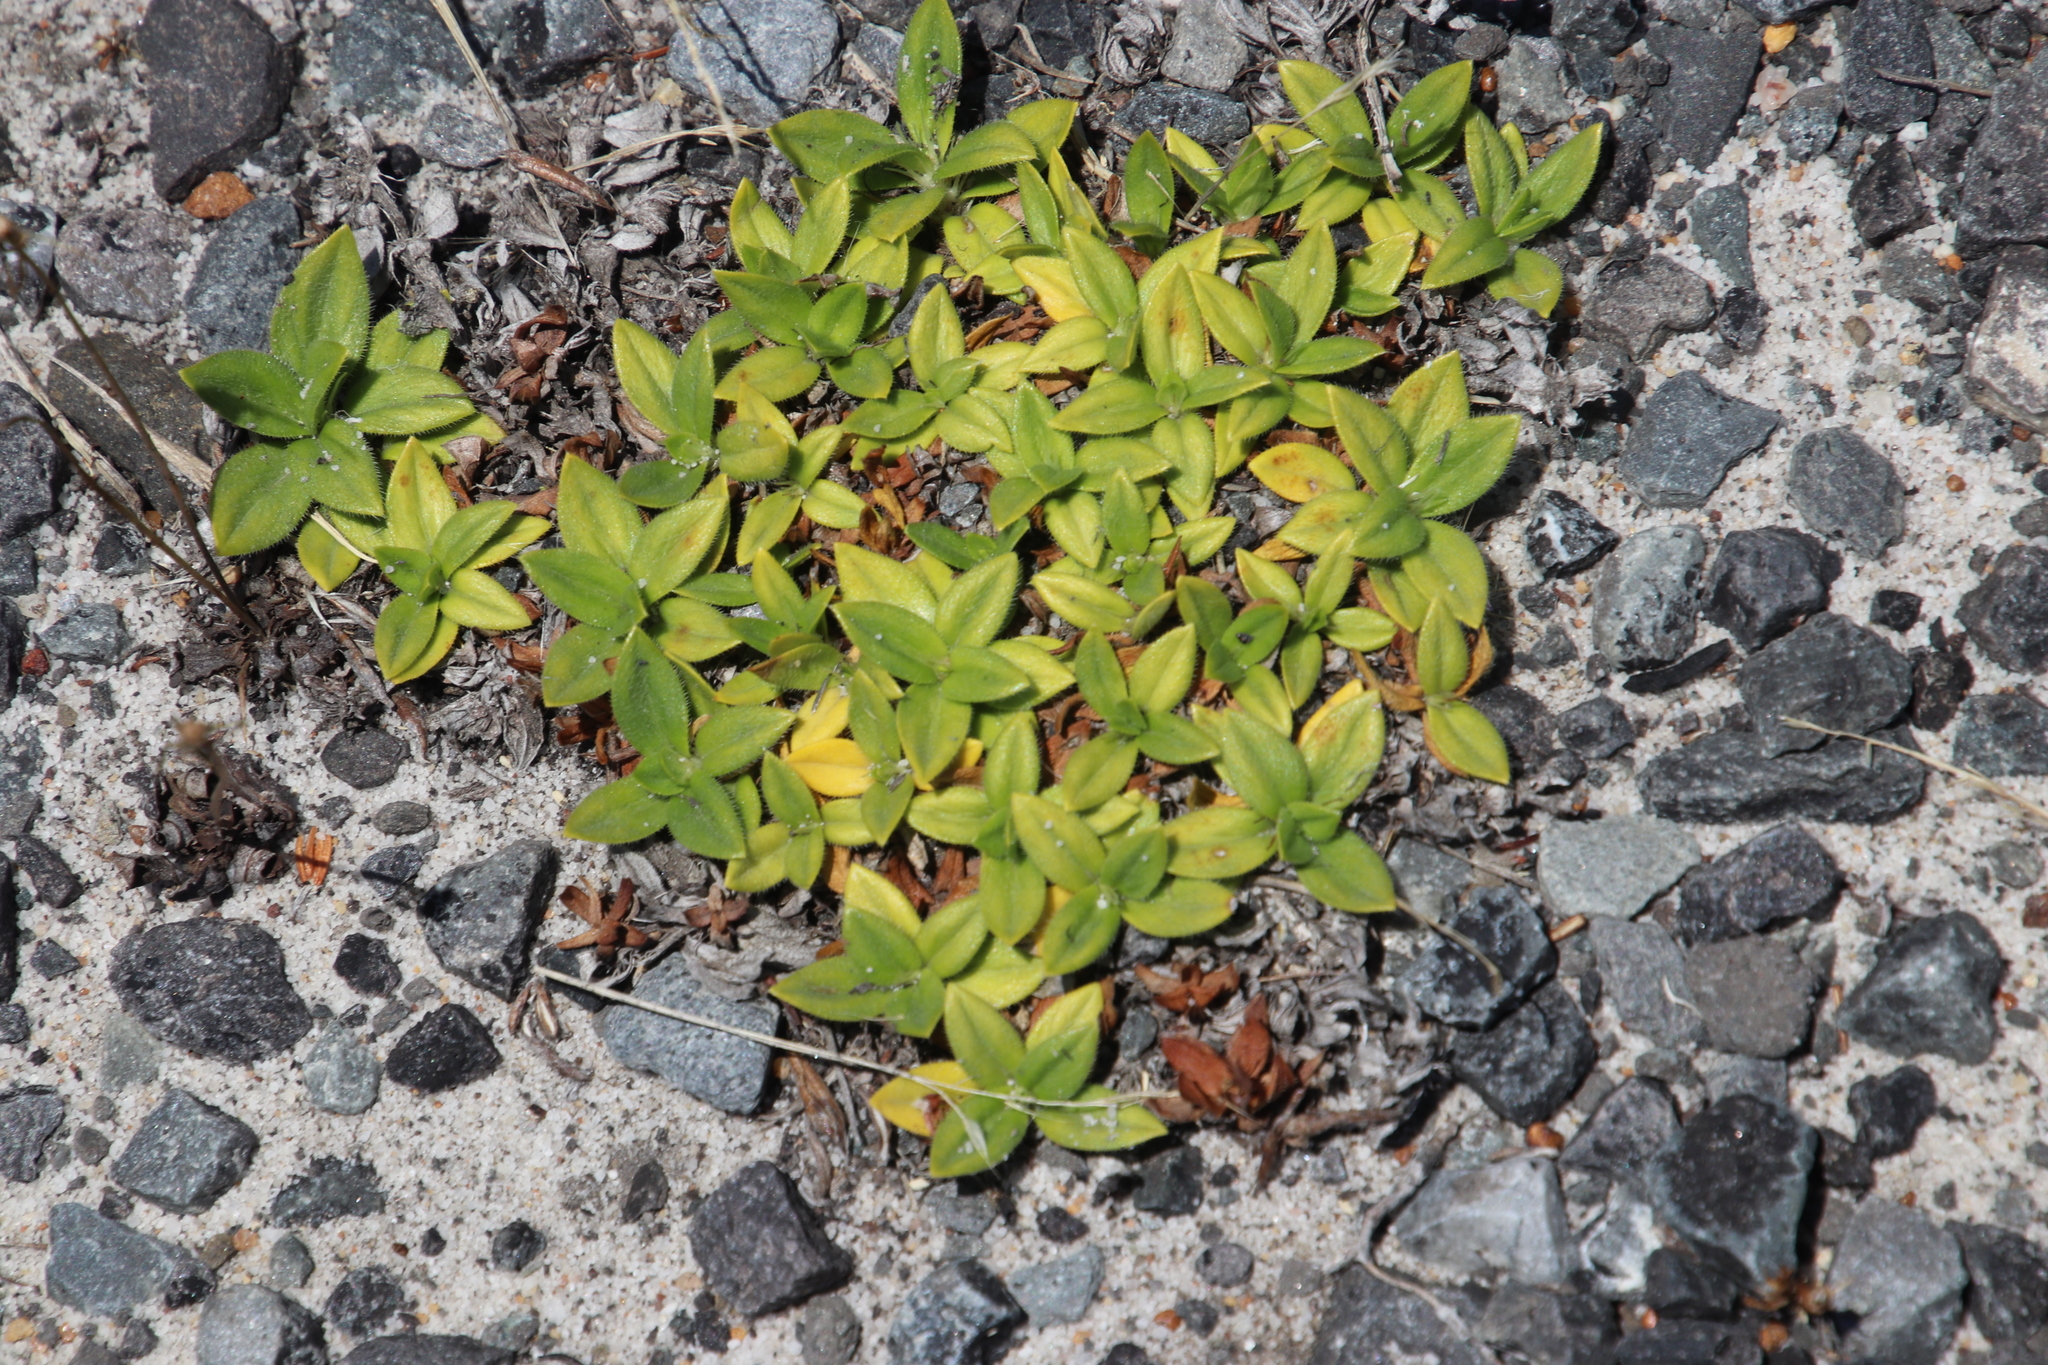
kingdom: Plantae
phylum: Tracheophyta
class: Magnoliopsida
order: Gentianales
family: Rubiaceae
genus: Richardia
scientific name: Richardia brasiliensis
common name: Tropical mexican clover
